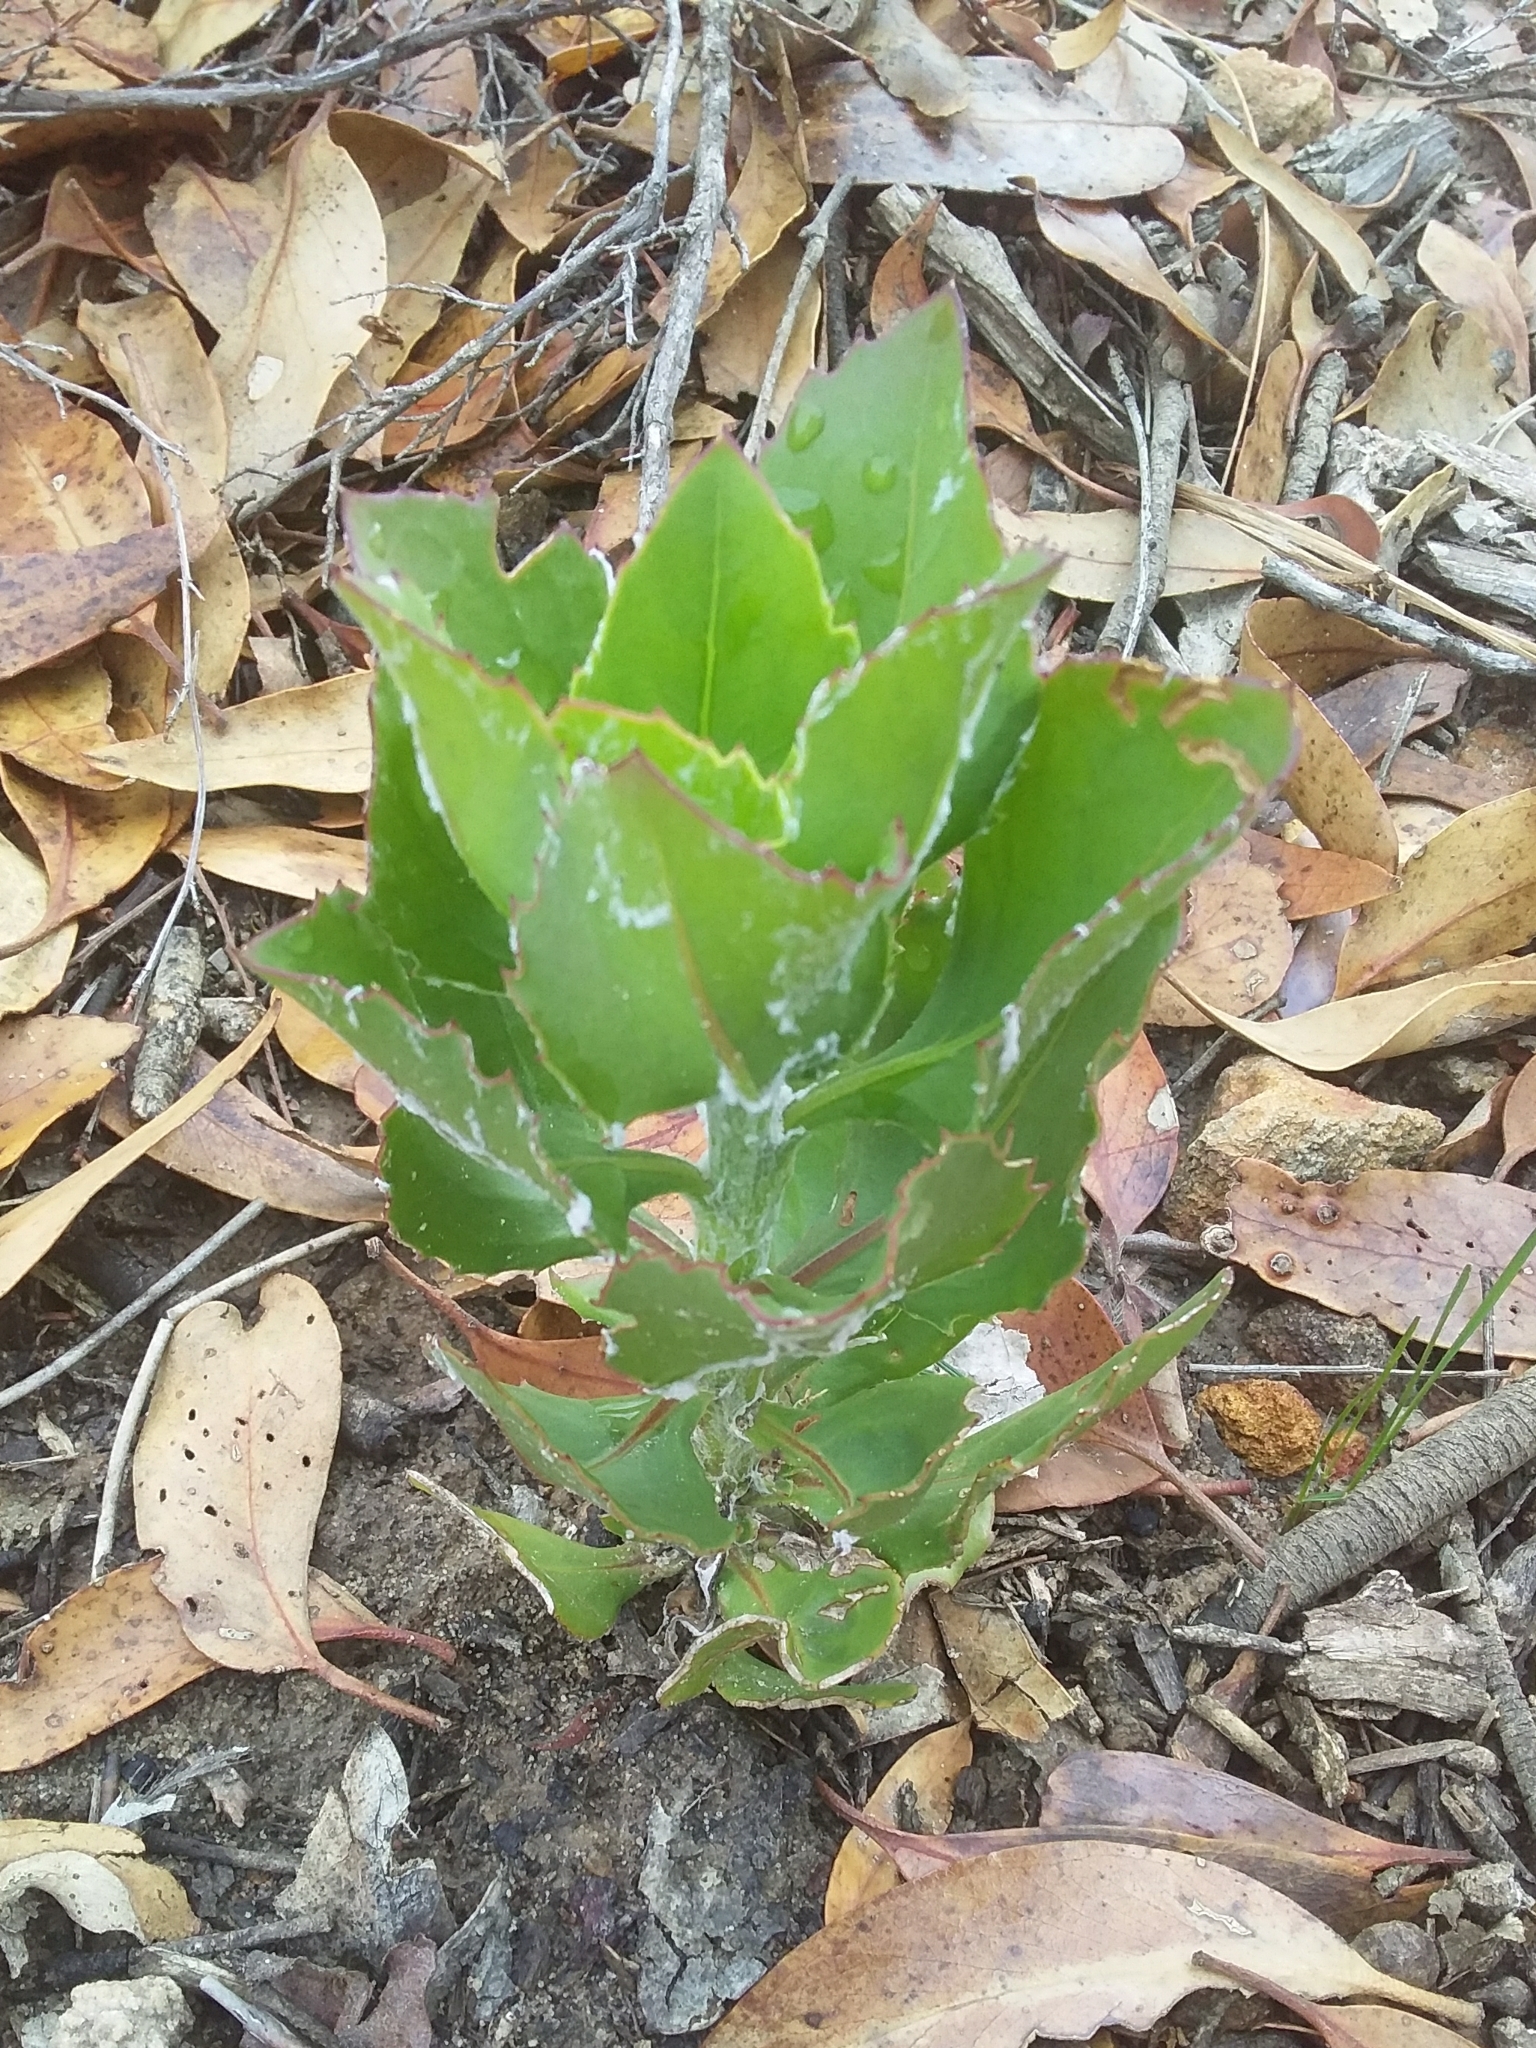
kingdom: Plantae
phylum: Tracheophyta
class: Magnoliopsida
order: Asterales
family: Asteraceae
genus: Osteospermum
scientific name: Osteospermum moniliferum
